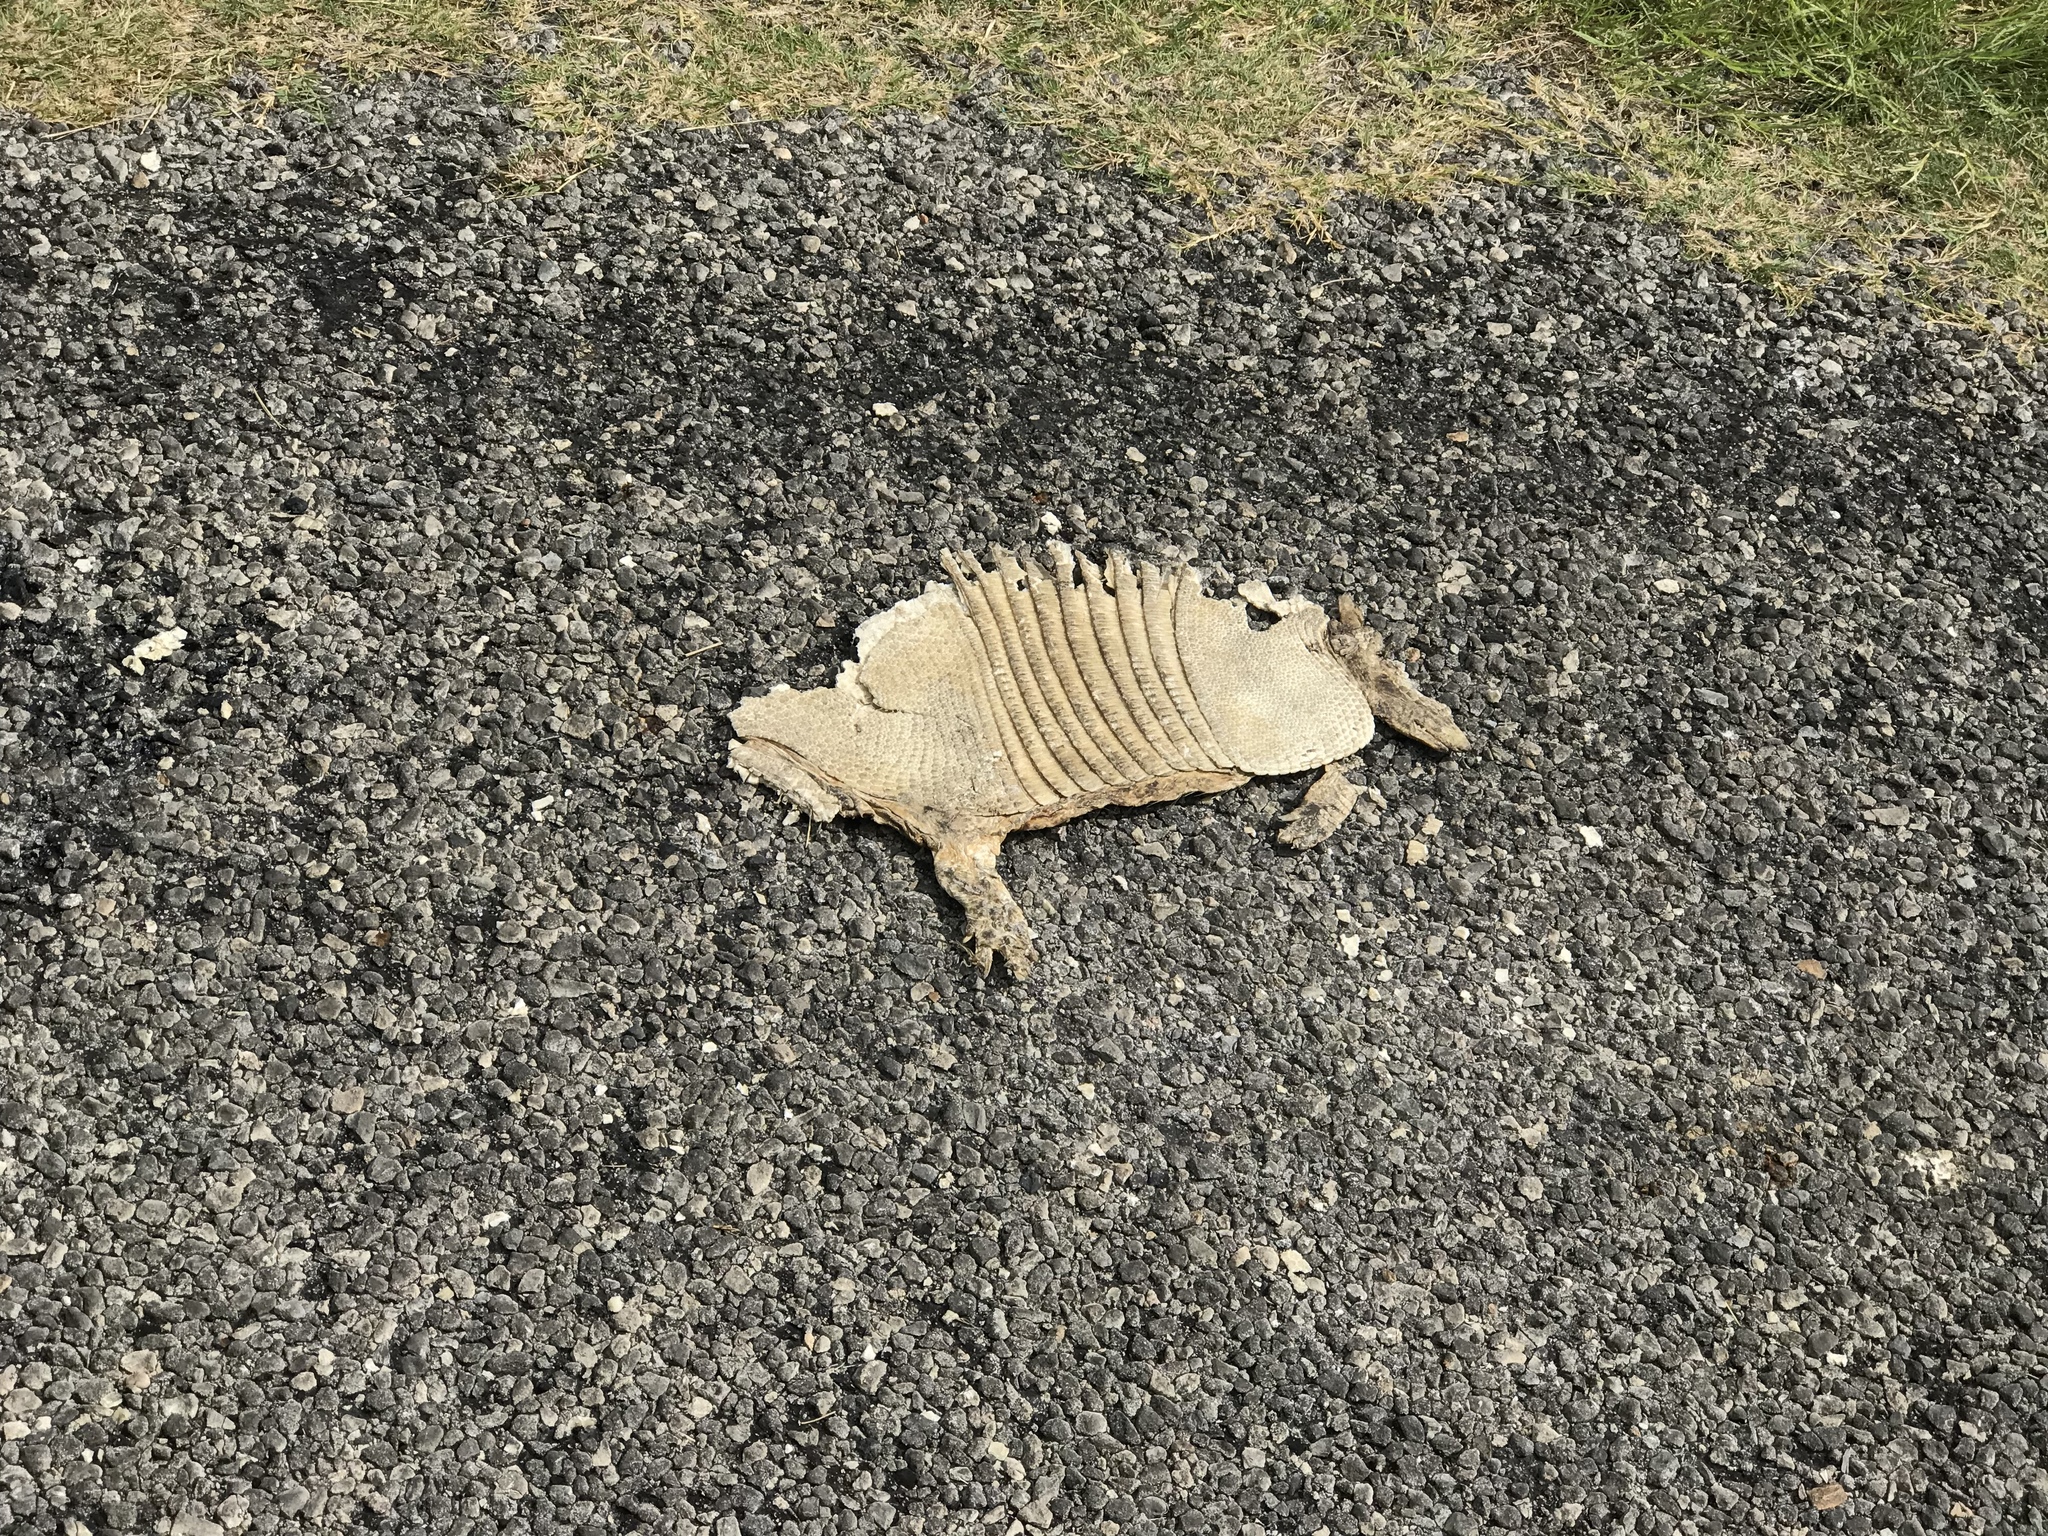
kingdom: Animalia
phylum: Chordata
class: Mammalia
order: Cingulata
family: Dasypodidae
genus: Dasypus
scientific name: Dasypus novemcinctus
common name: Nine-banded armadillo
